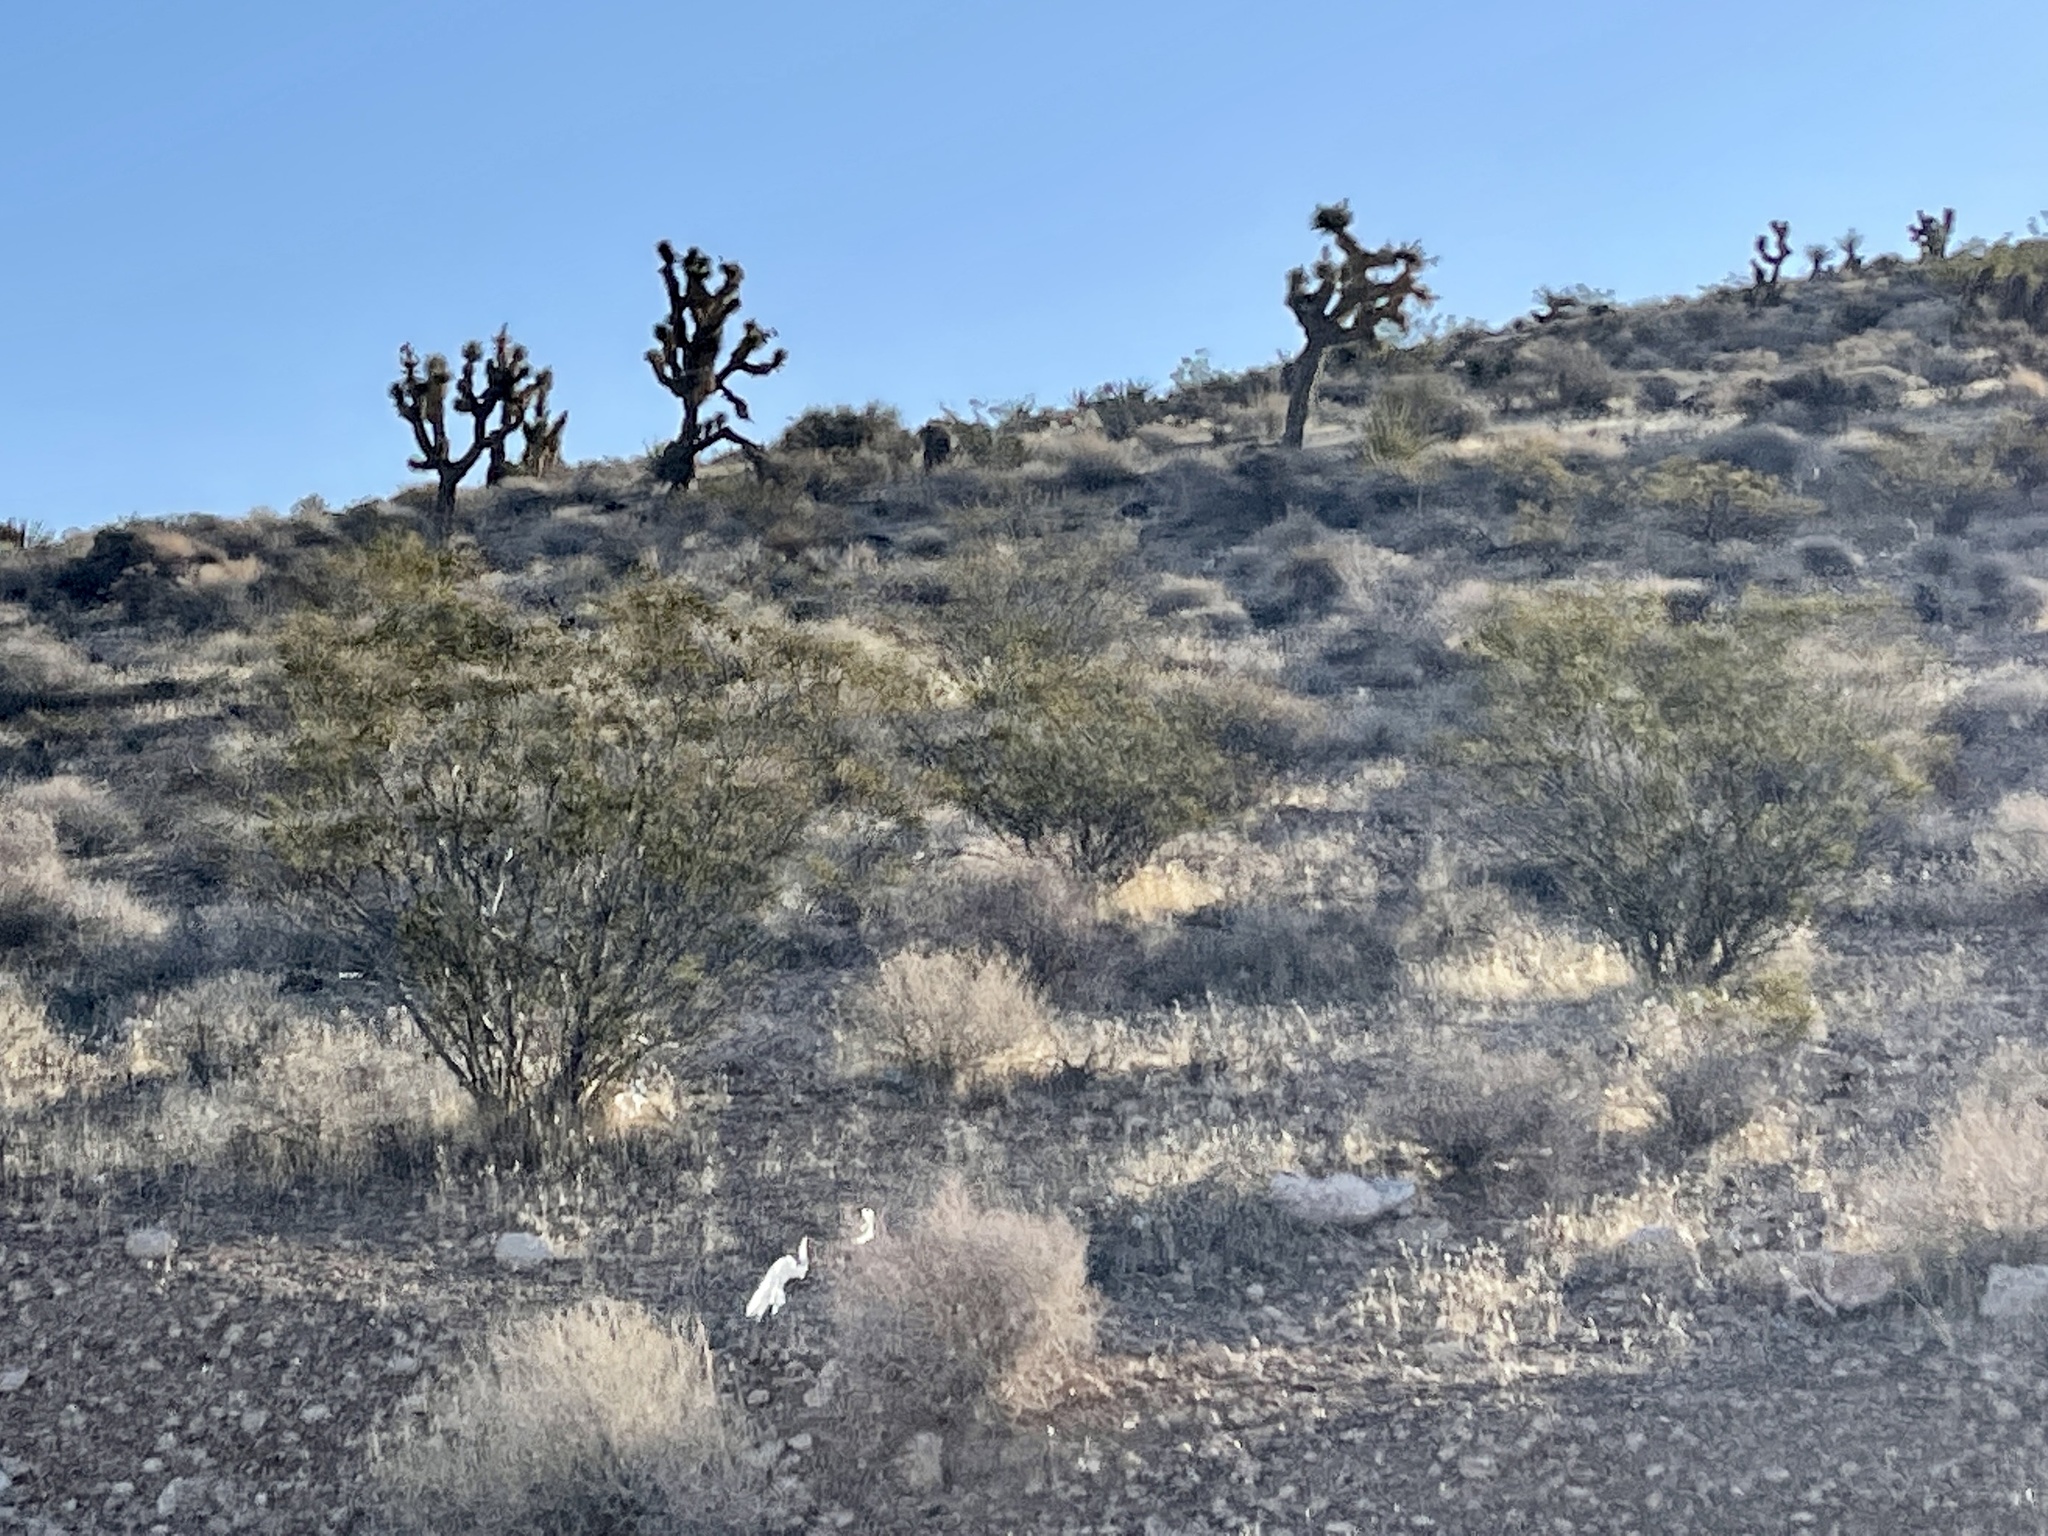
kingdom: Plantae
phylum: Tracheophyta
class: Magnoliopsida
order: Zygophyllales
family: Zygophyllaceae
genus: Larrea
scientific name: Larrea tridentata
